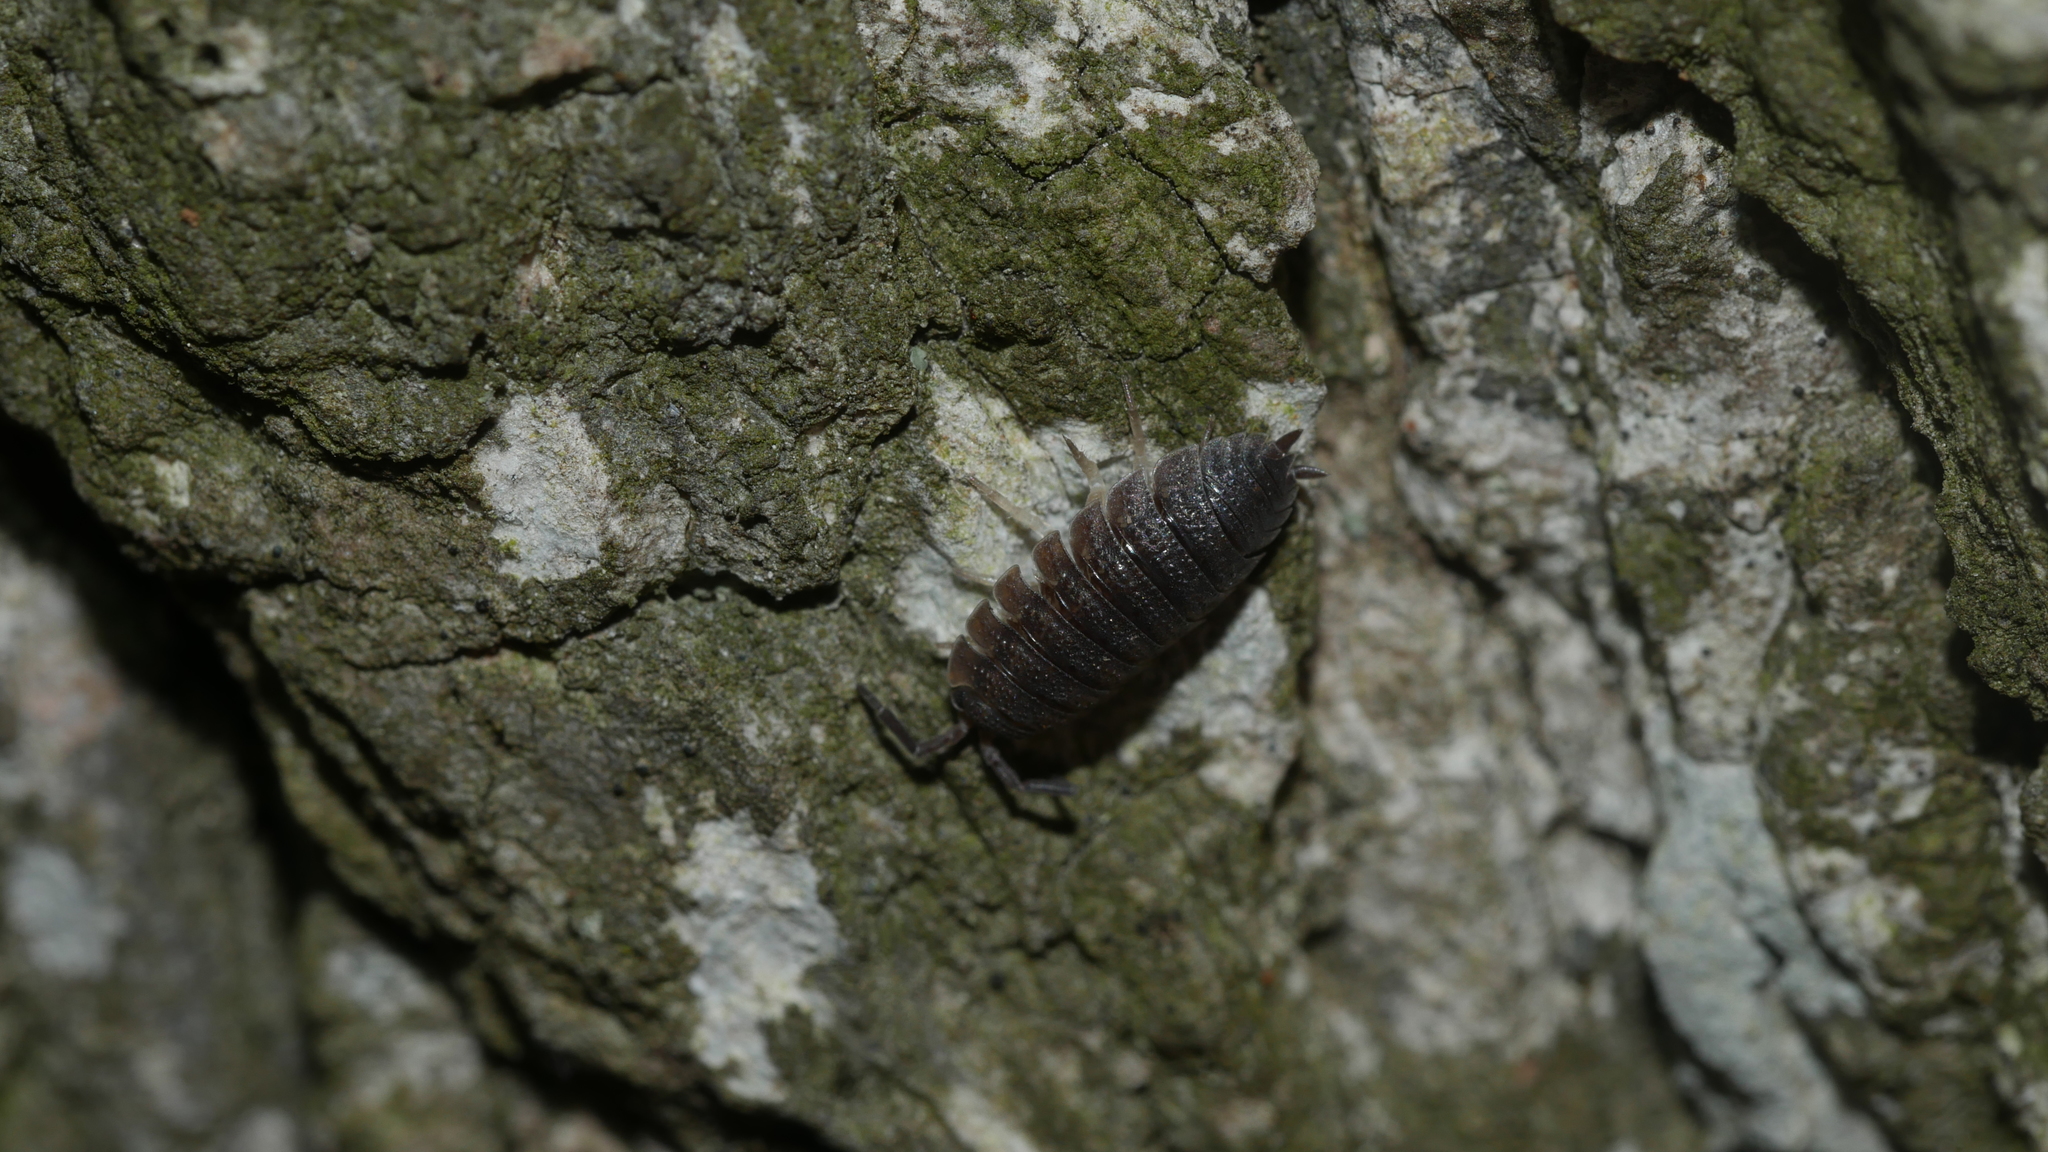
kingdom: Animalia
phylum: Arthropoda
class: Malacostraca
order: Isopoda
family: Porcellionidae
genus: Porcellio
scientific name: Porcellio scaber
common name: Common rough woodlouse
